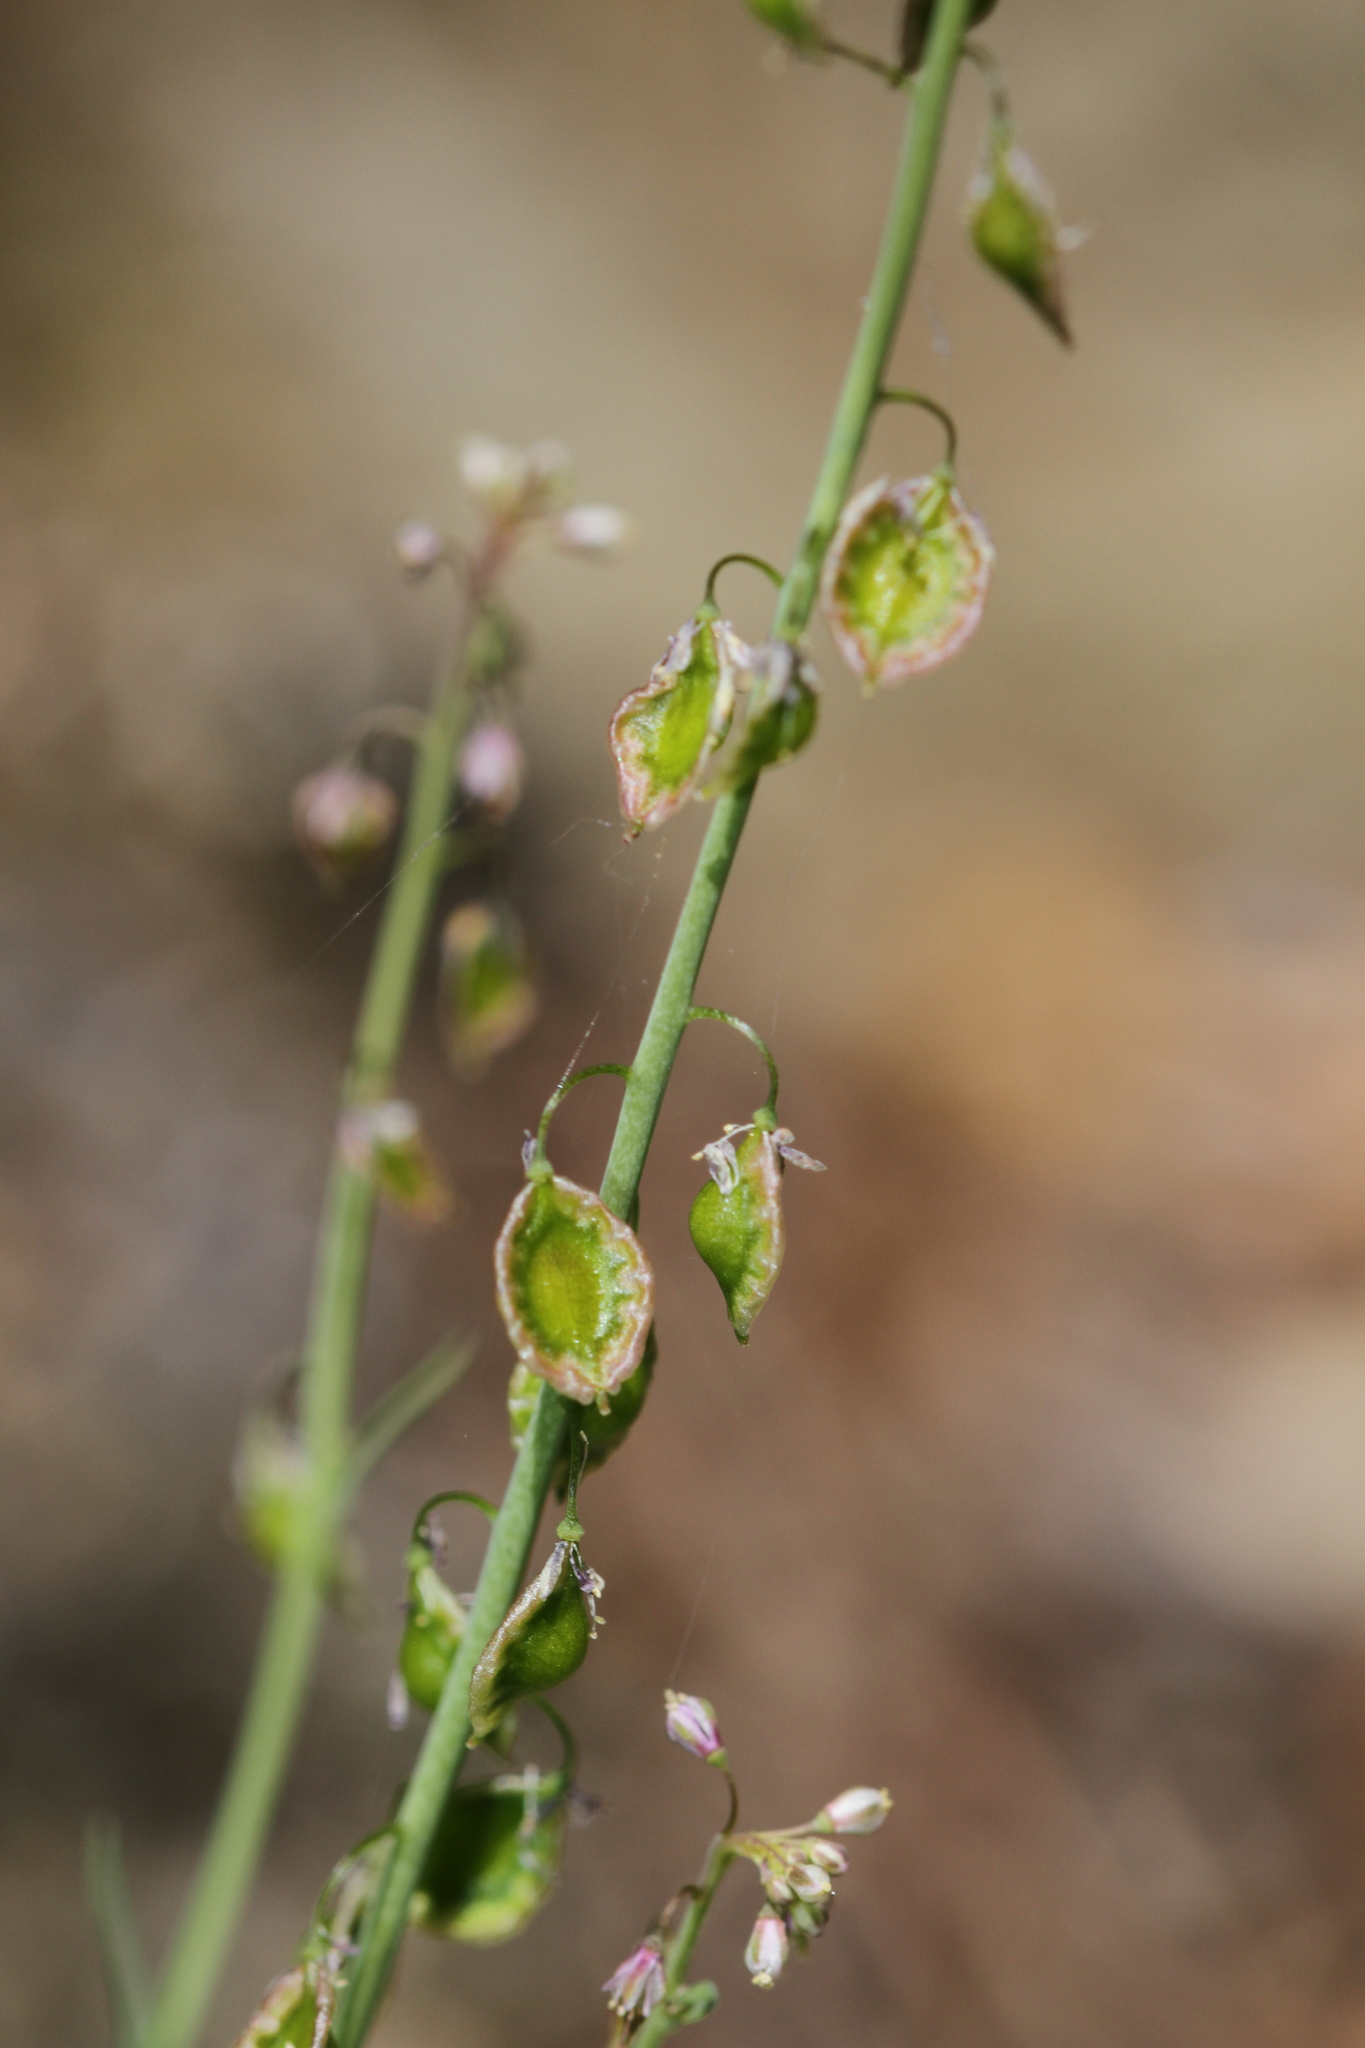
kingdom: Plantae
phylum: Tracheophyta
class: Magnoliopsida
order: Brassicales
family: Brassicaceae
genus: Thysanocarpus
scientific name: Thysanocarpus curvipes
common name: Sand fringepod
